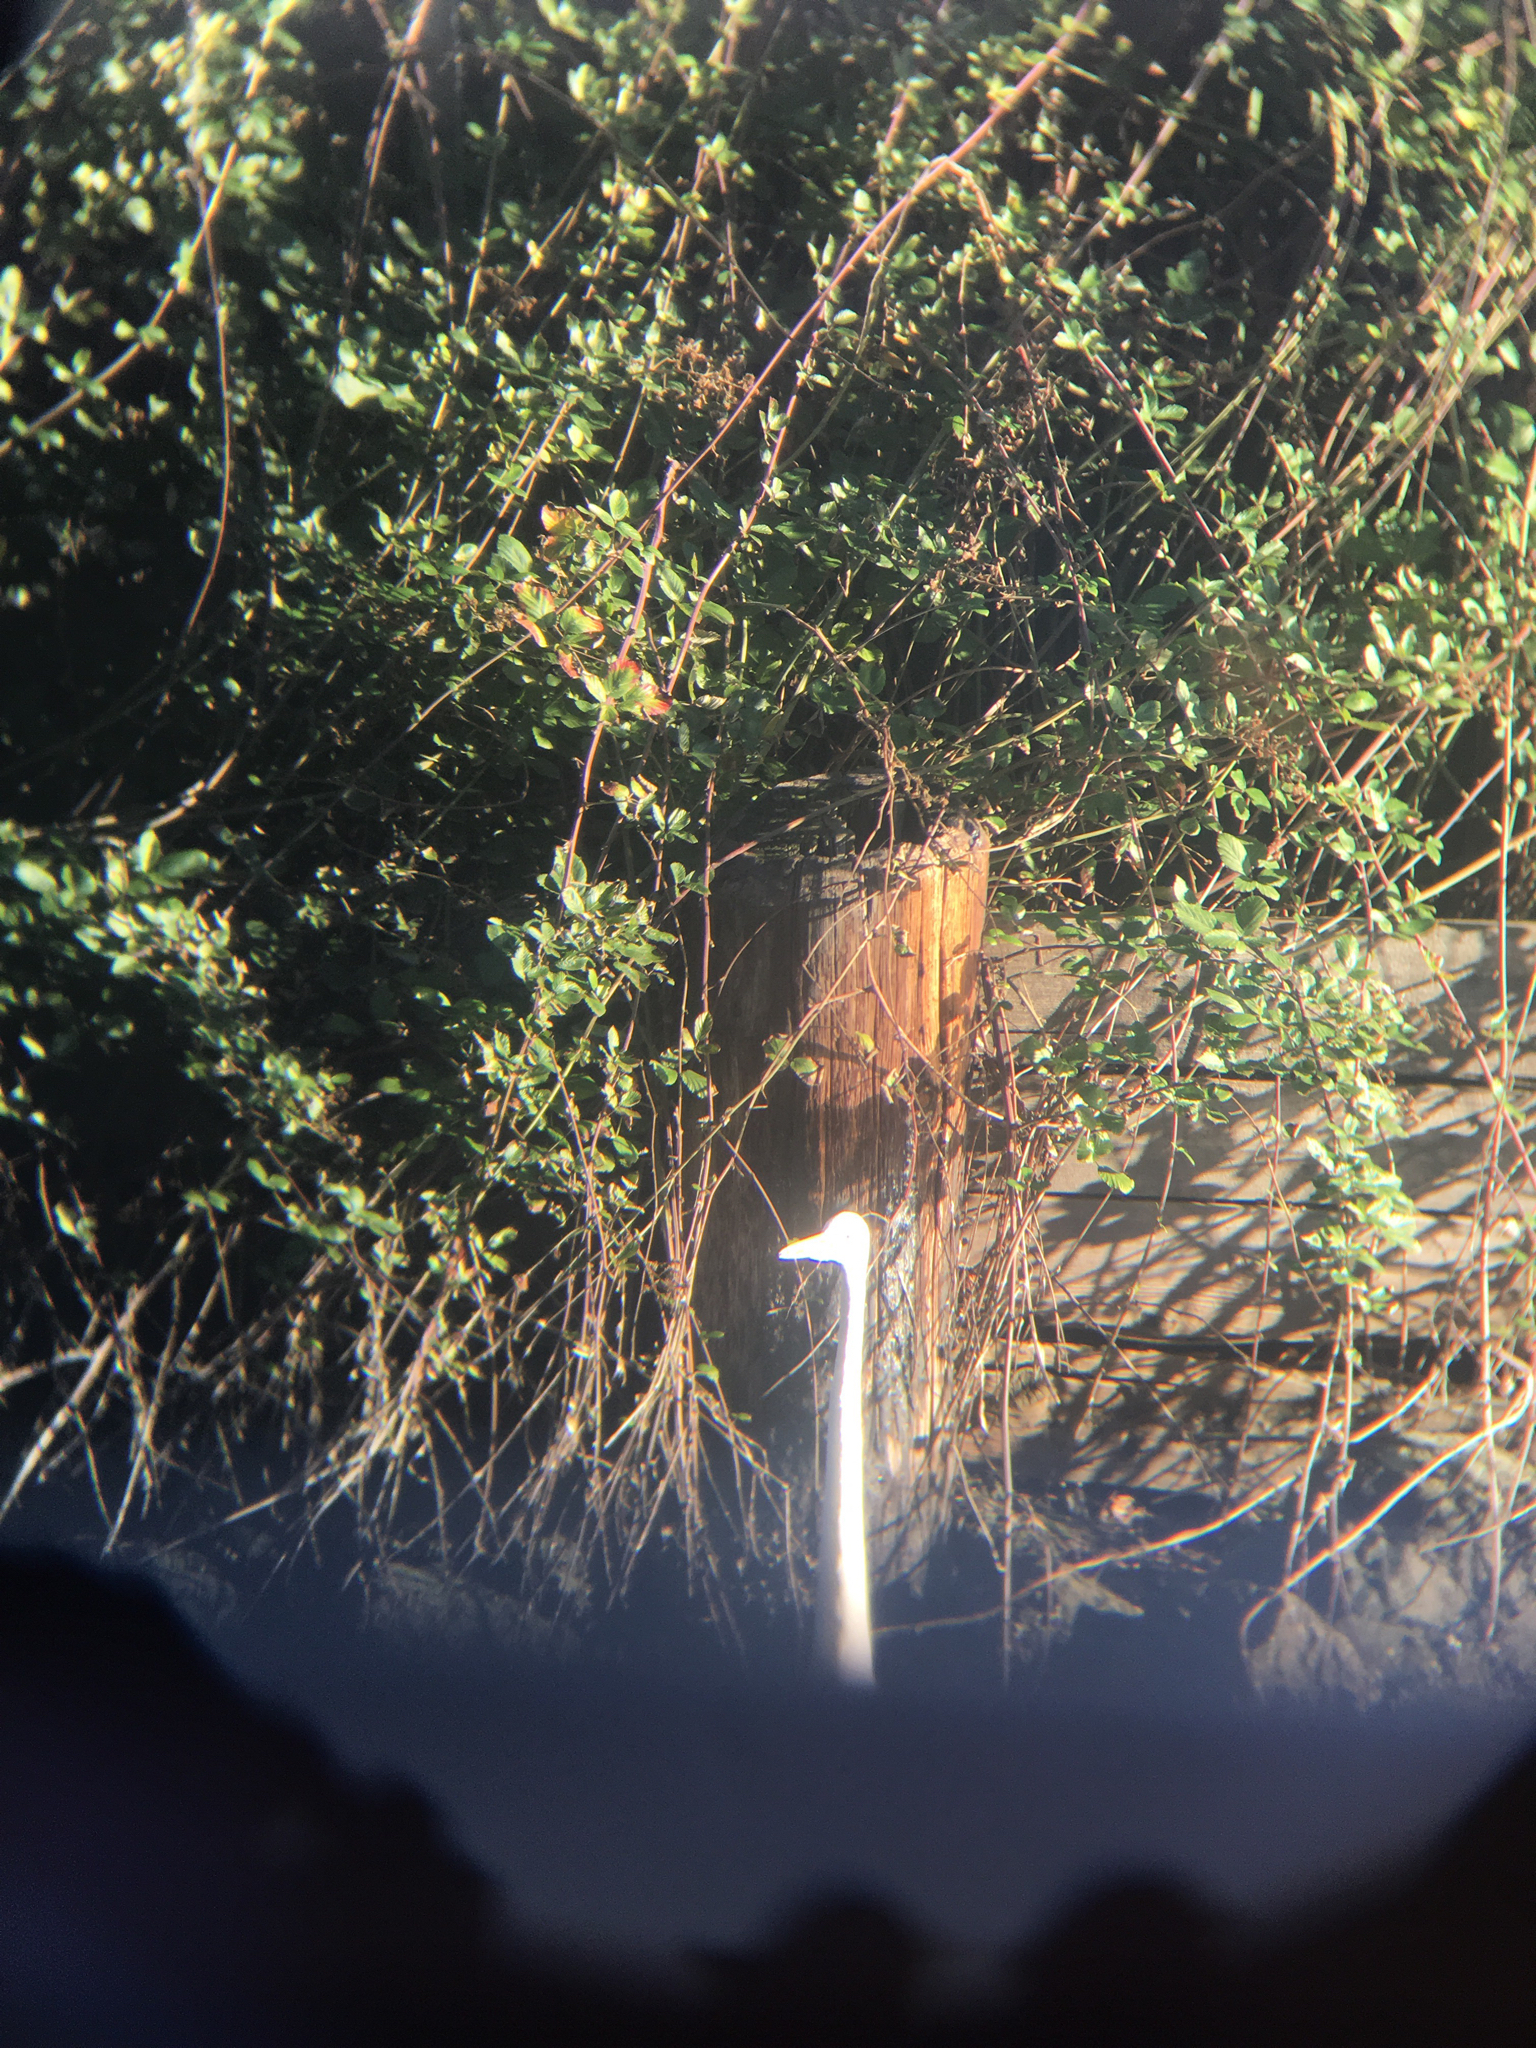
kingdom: Animalia
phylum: Chordata
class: Aves
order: Pelecaniformes
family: Ardeidae
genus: Ardea
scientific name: Ardea alba
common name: Great egret
